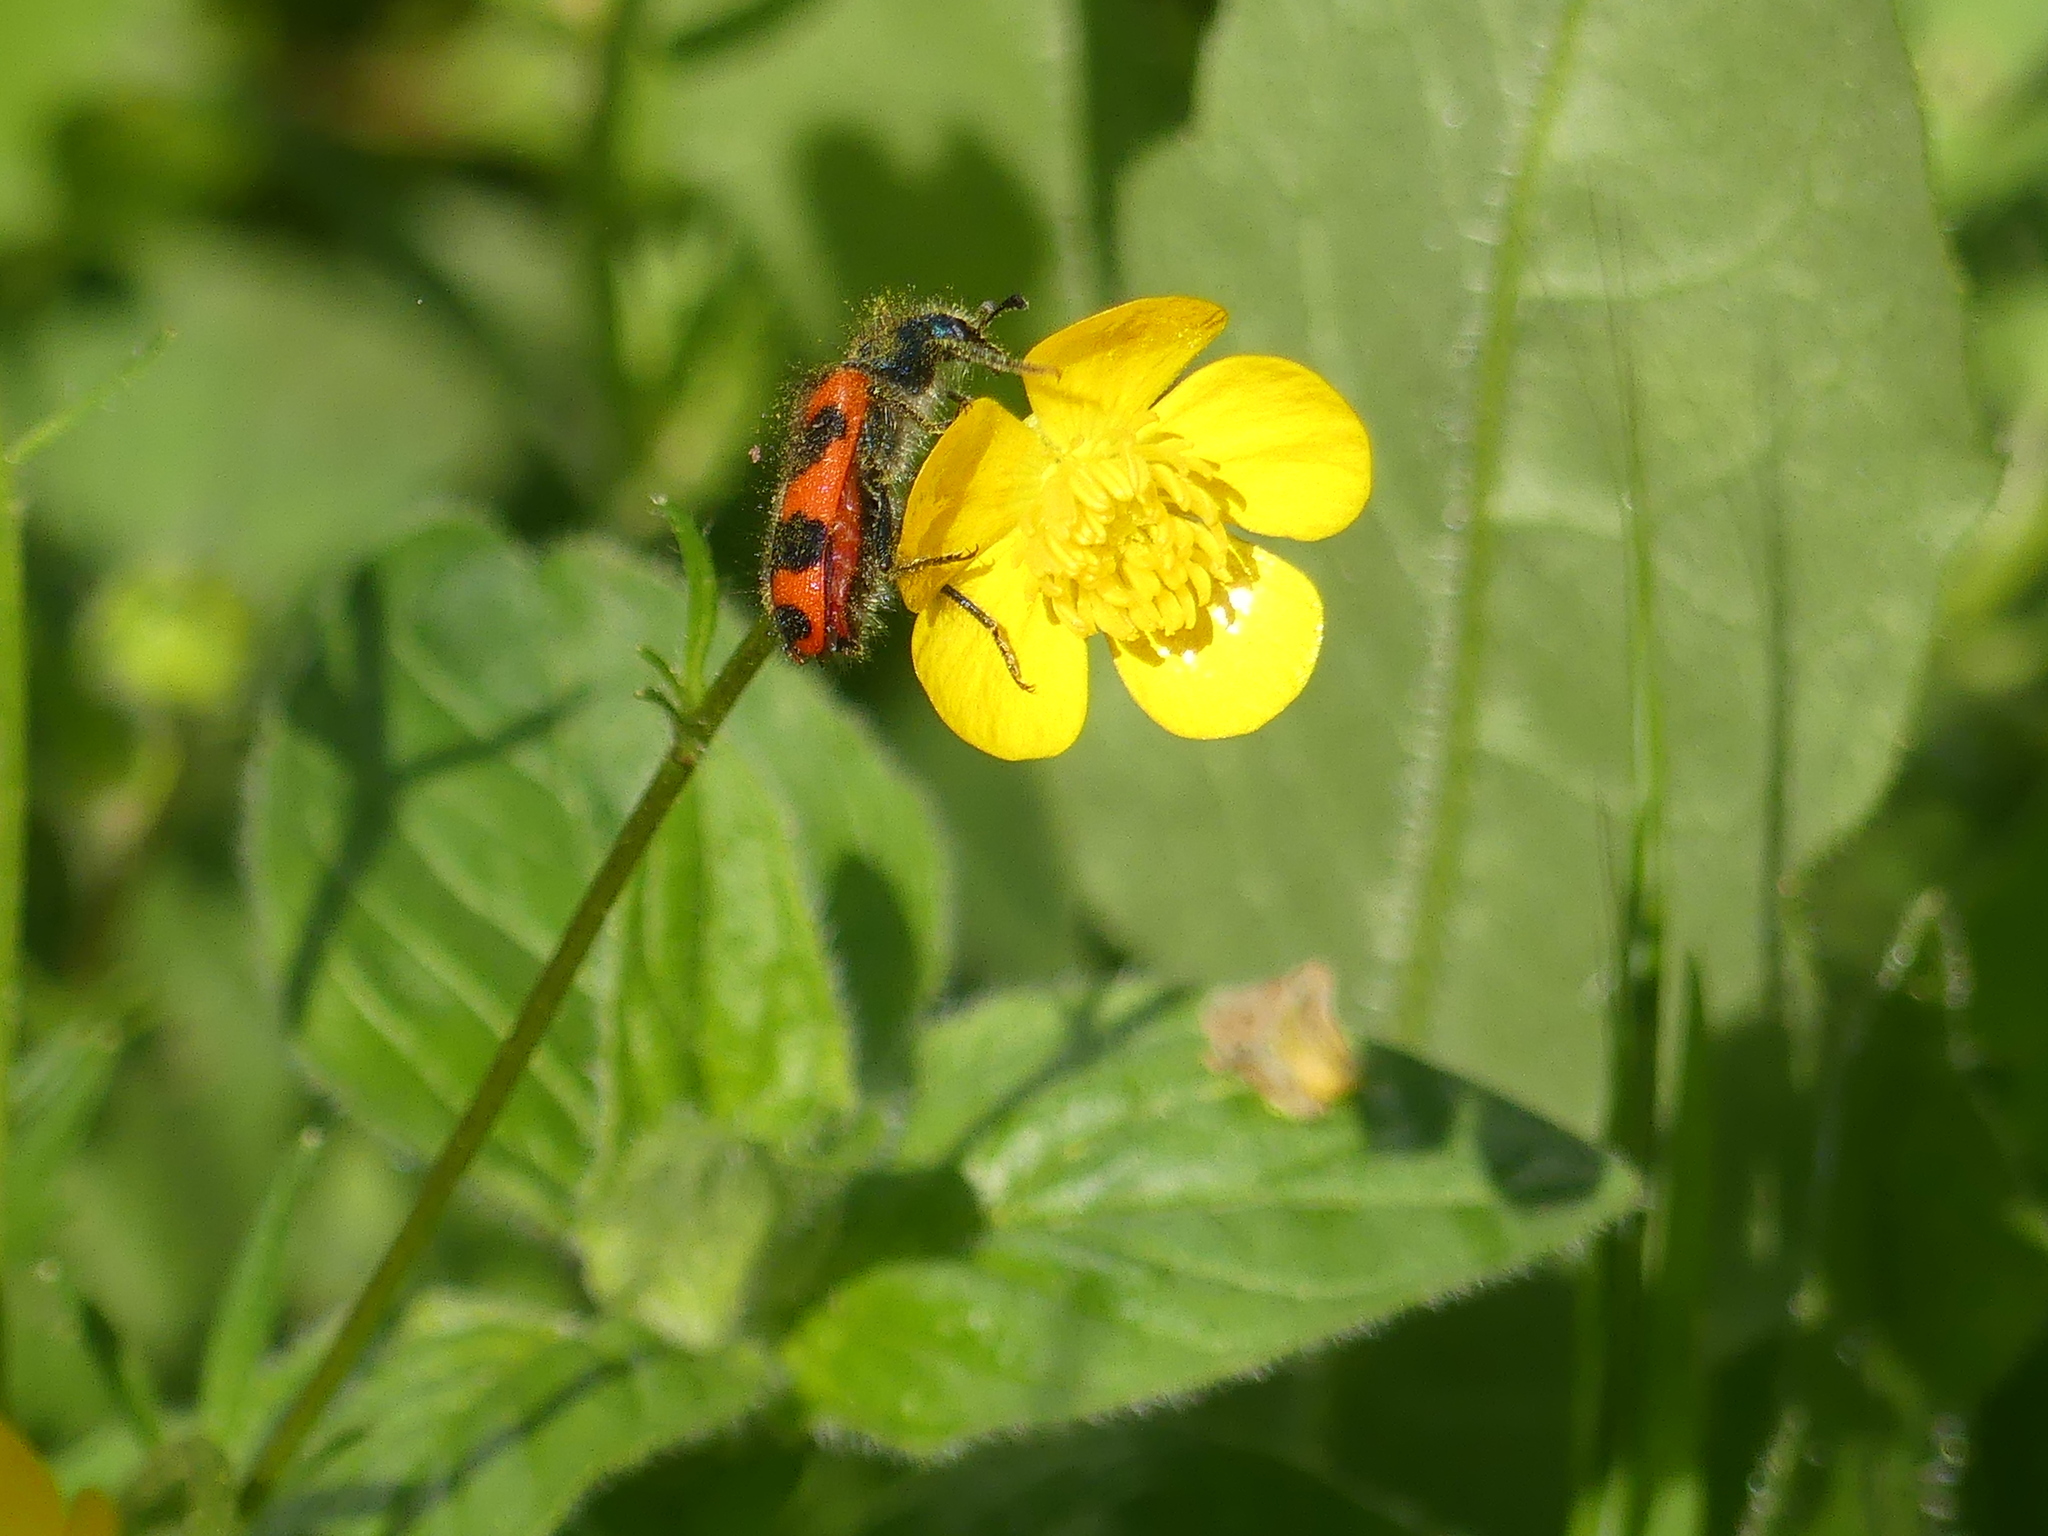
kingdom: Animalia
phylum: Arthropoda
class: Insecta
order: Coleoptera
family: Cleridae
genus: Trichodes
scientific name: Trichodes alvearius
